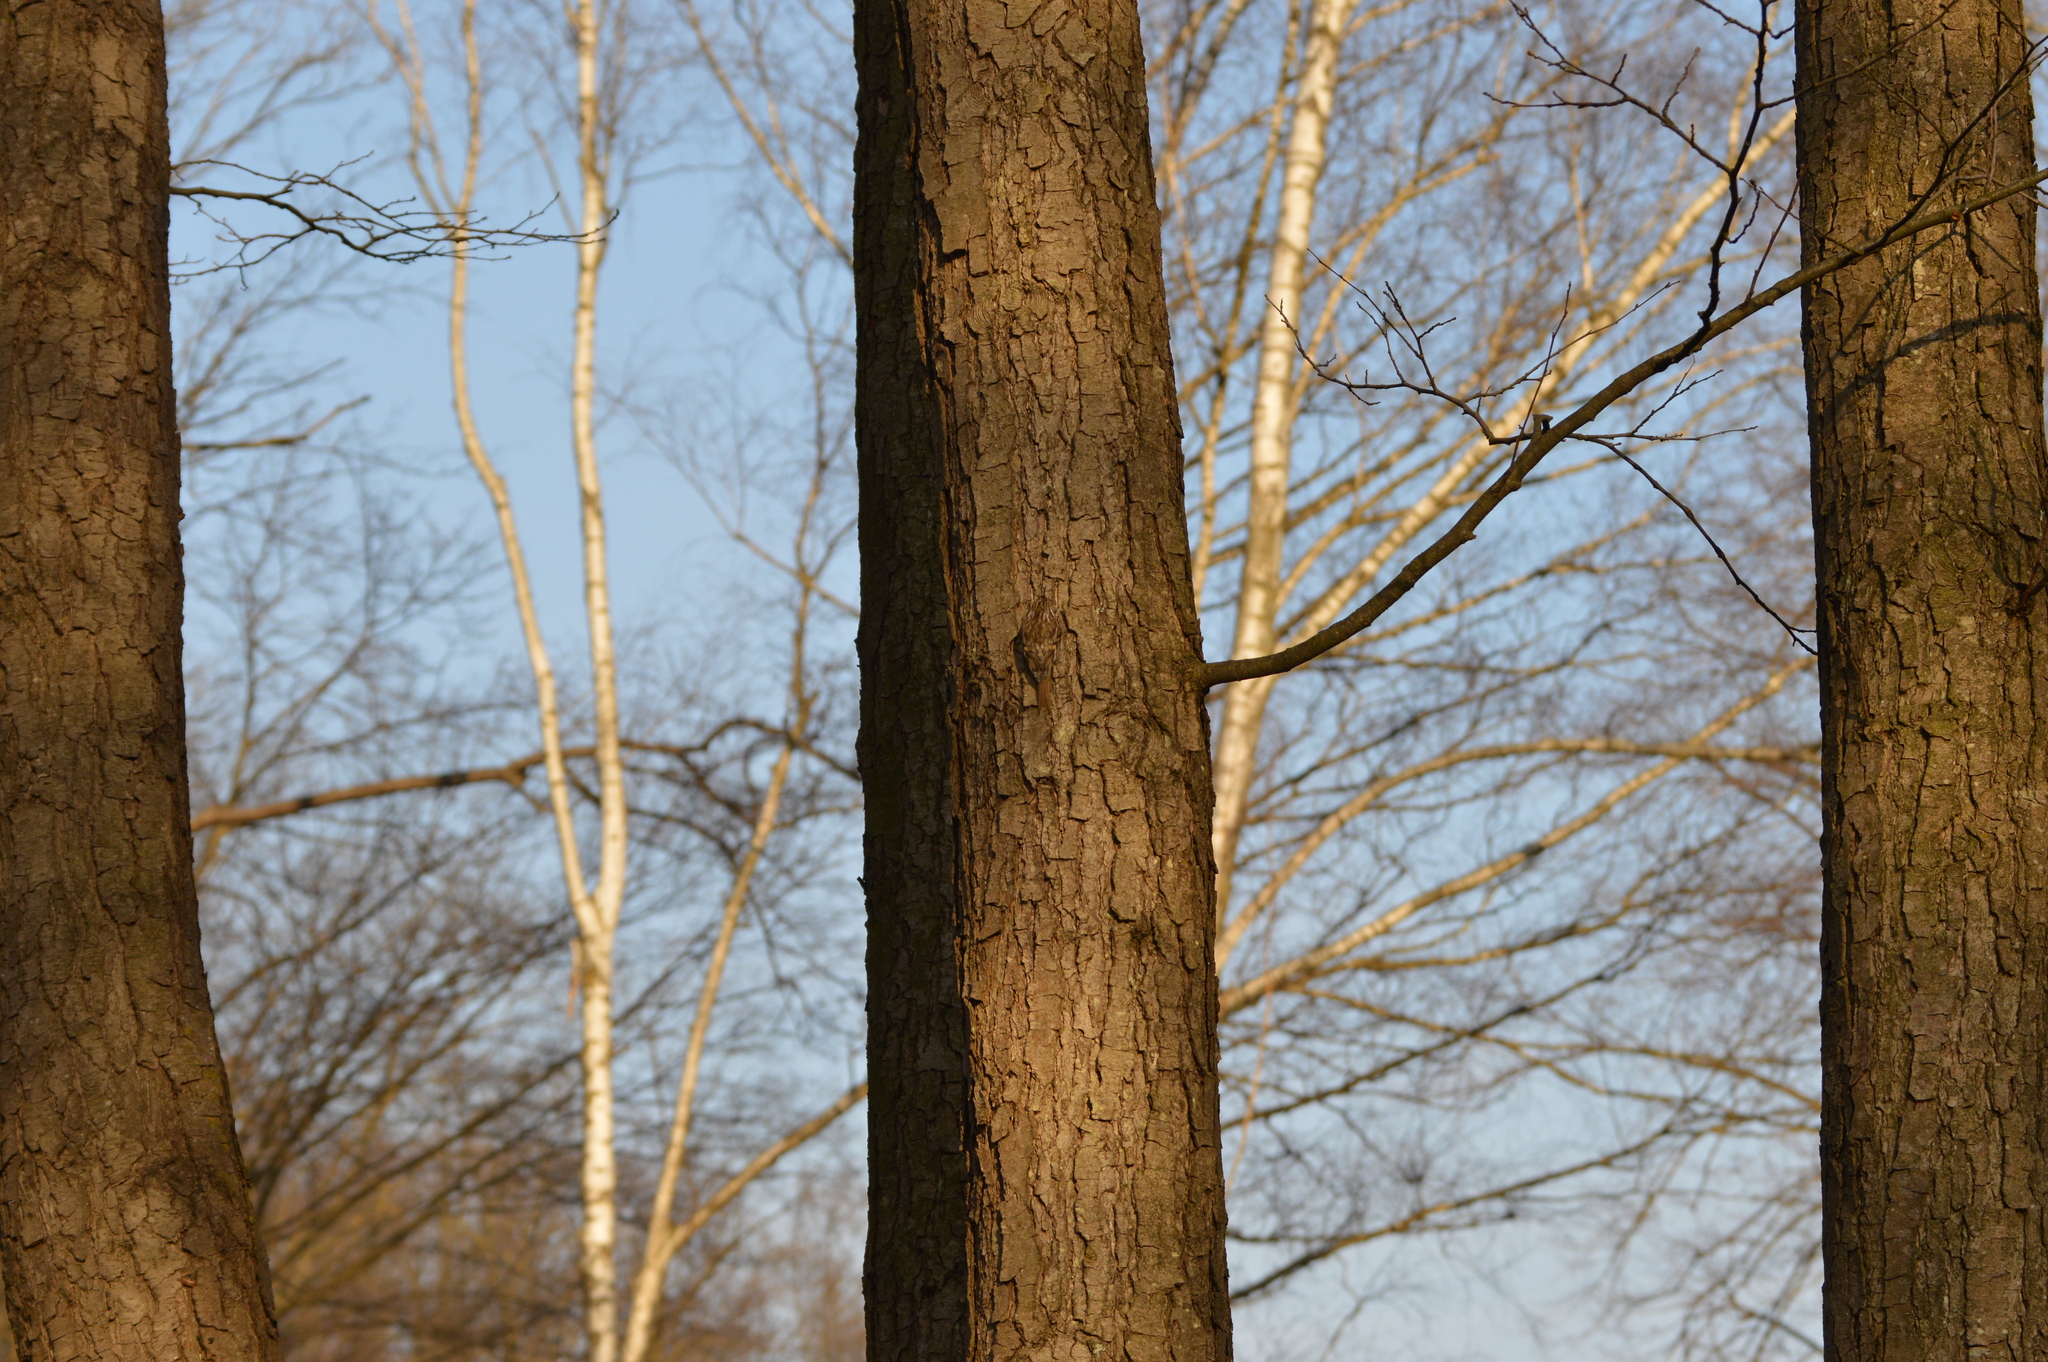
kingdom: Animalia
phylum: Chordata
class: Aves
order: Passeriformes
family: Certhiidae
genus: Certhia
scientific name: Certhia familiaris
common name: Eurasian treecreeper
